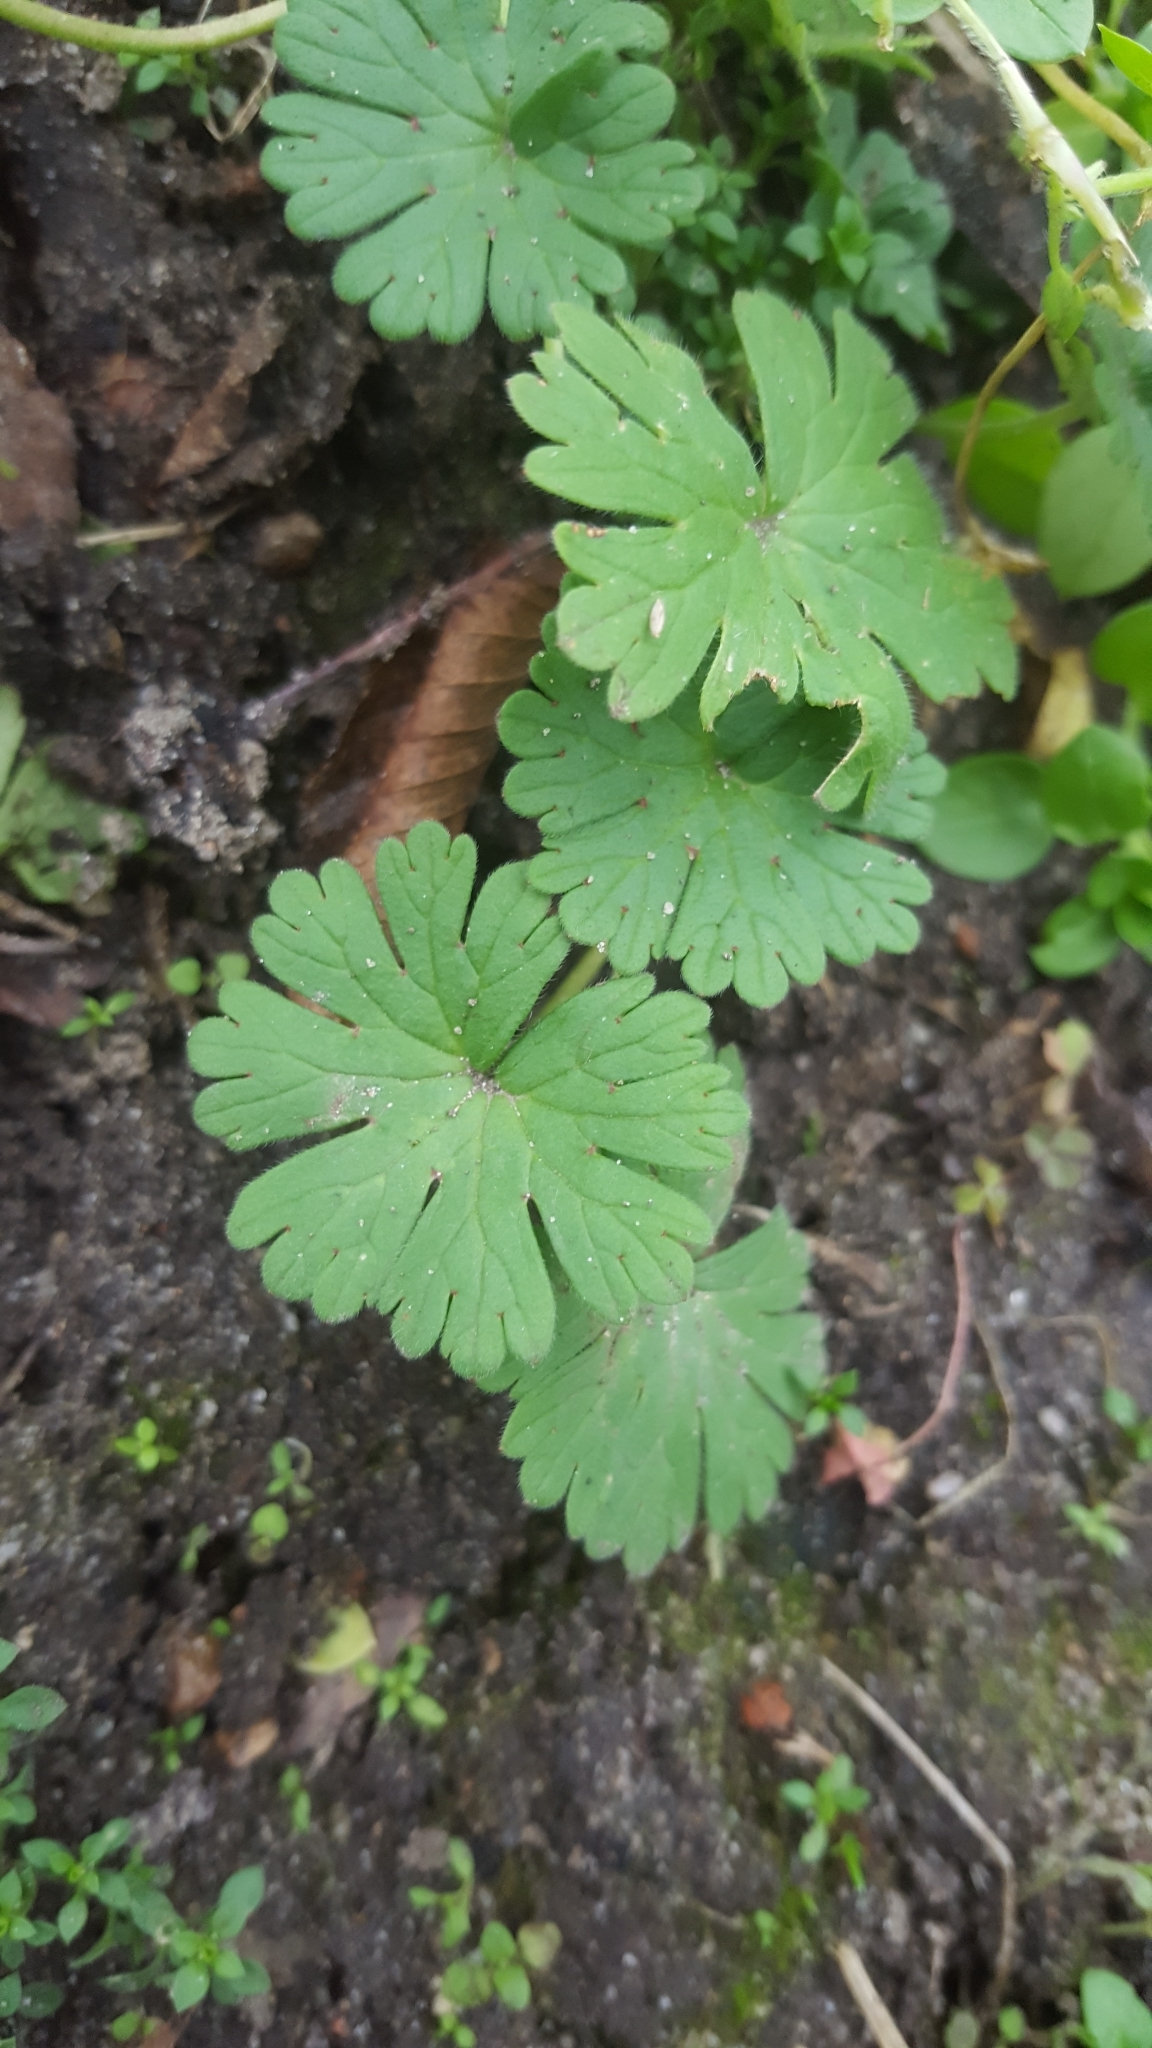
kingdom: Plantae
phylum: Tracheophyta
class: Magnoliopsida
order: Geraniales
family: Geraniaceae
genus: Geranium
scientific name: Geranium pusillum
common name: Small geranium
